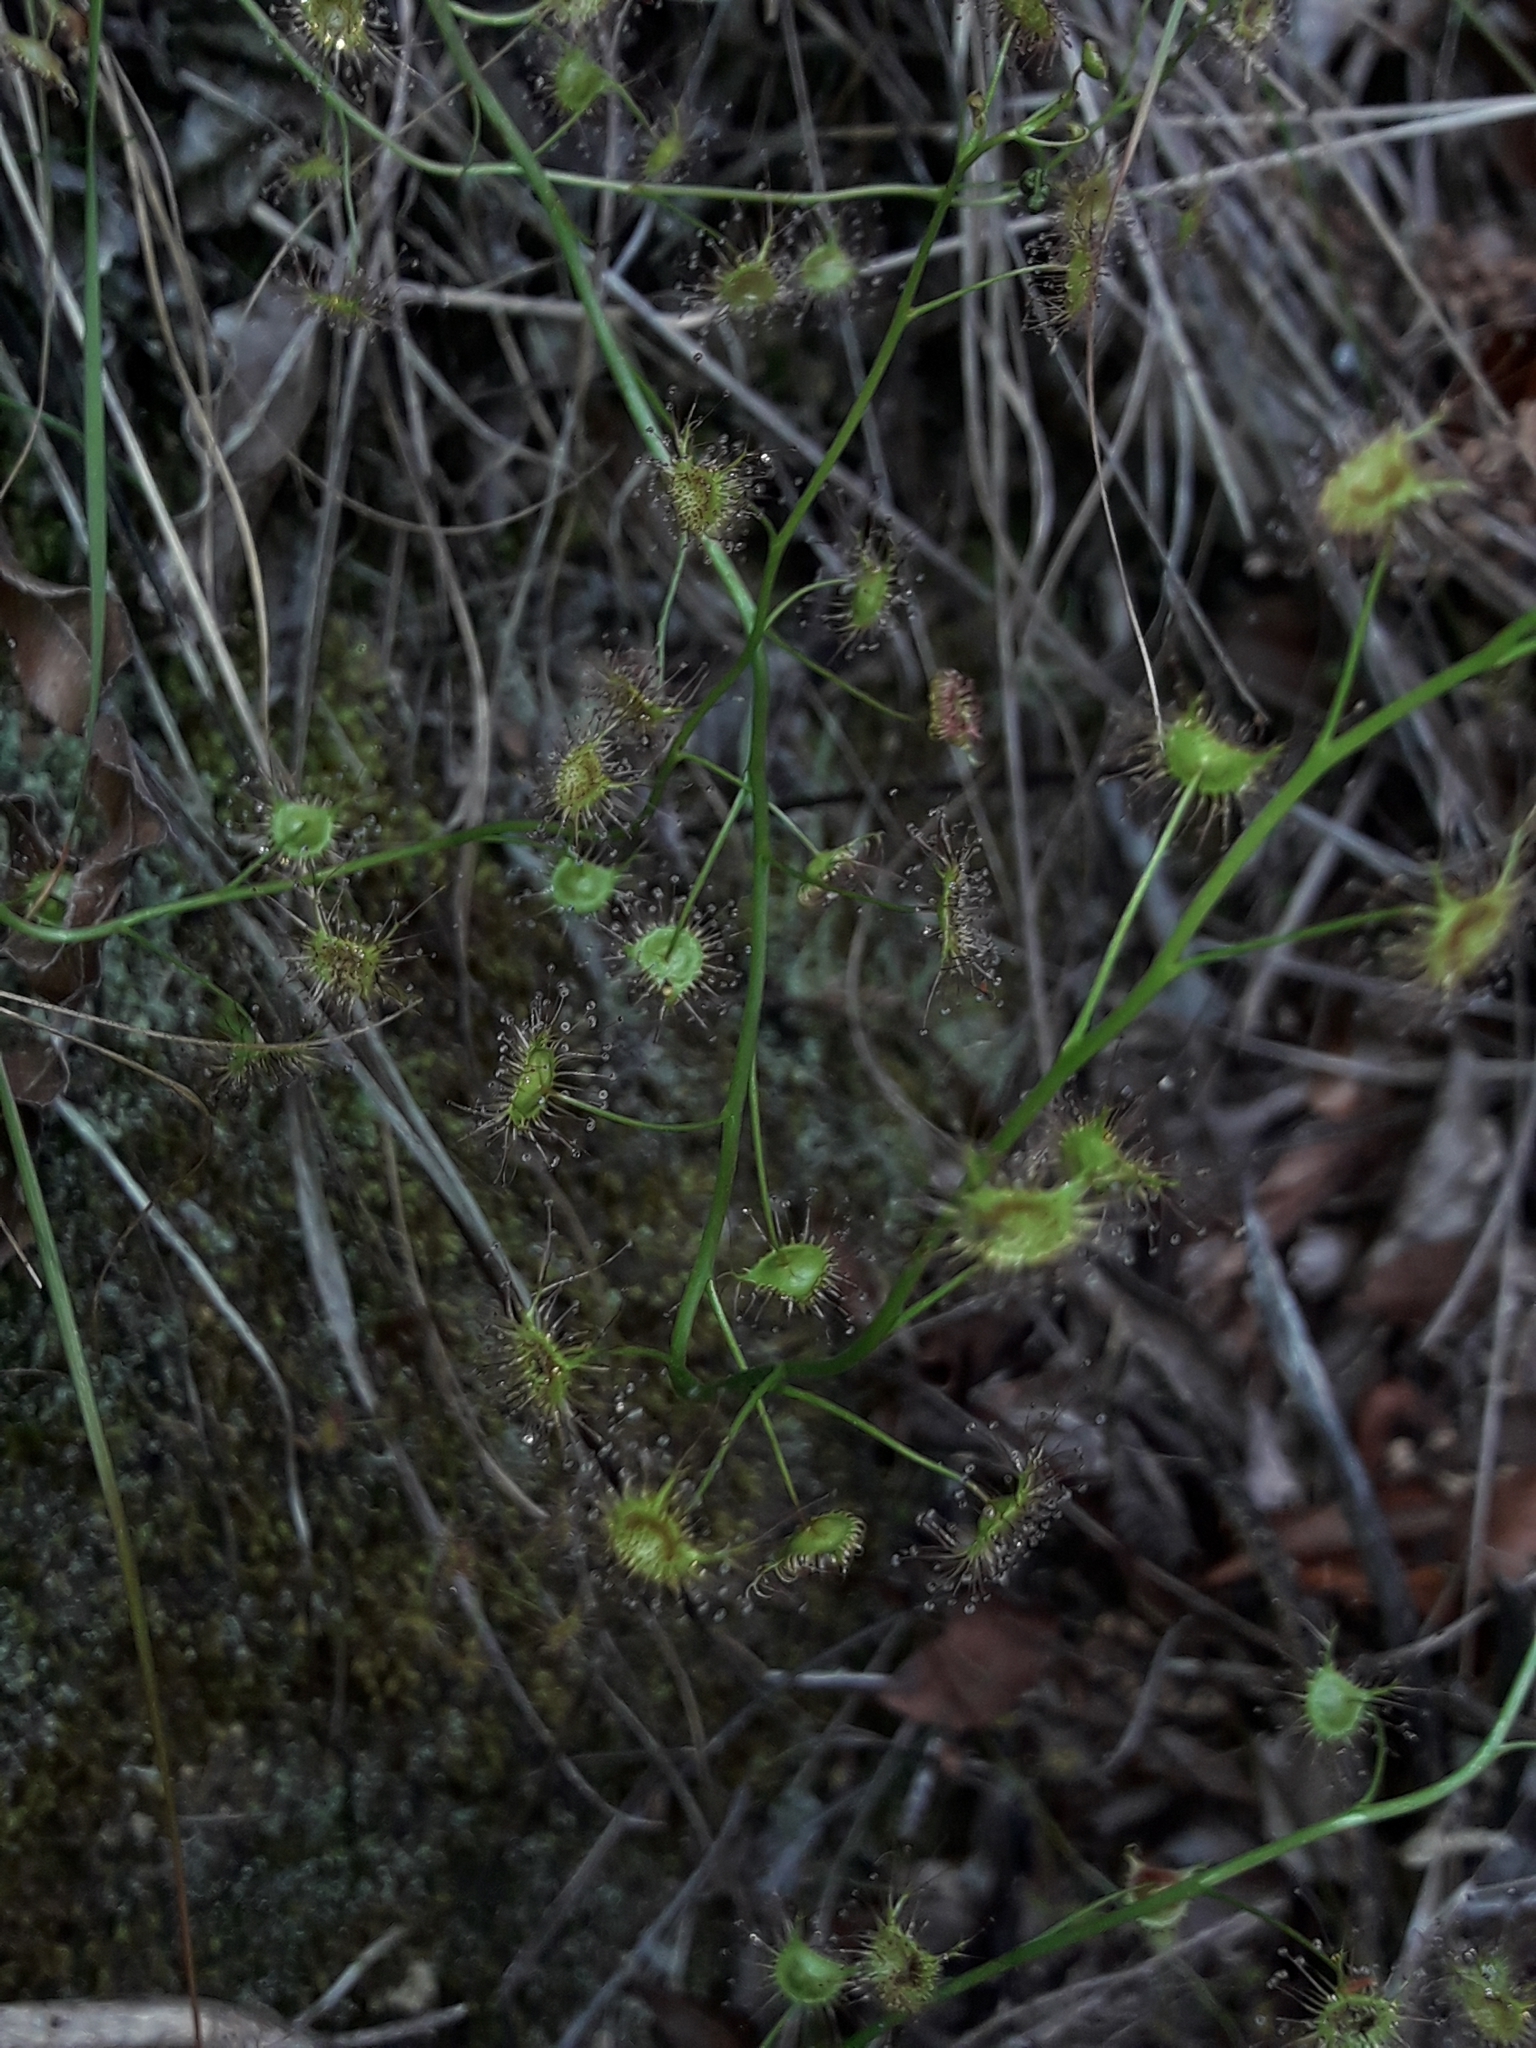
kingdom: Plantae
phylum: Tracheophyta
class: Magnoliopsida
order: Caryophyllales
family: Droseraceae
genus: Drosera
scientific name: Drosera peltata
